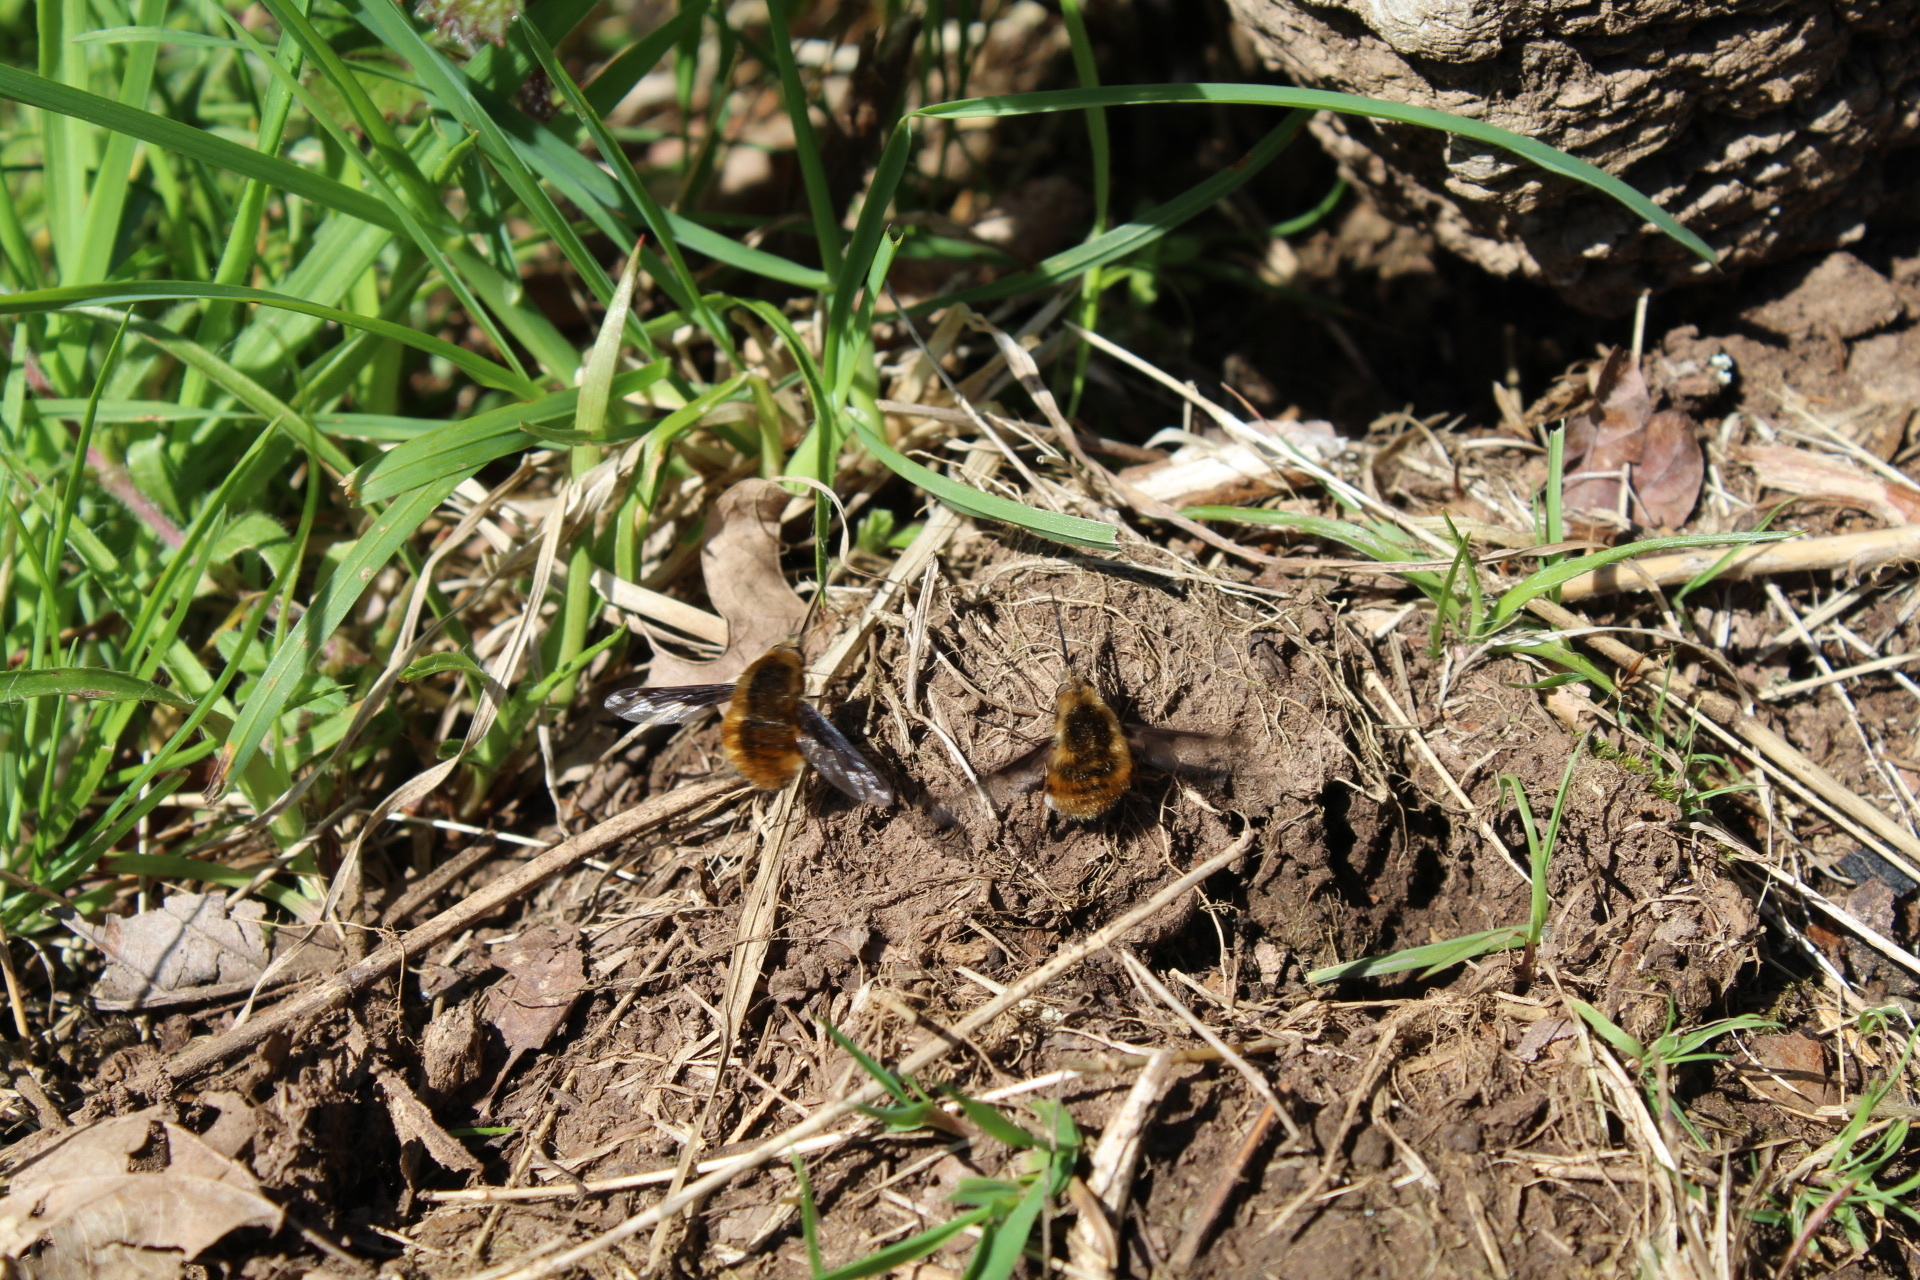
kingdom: Animalia
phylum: Arthropoda
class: Insecta
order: Diptera
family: Bombyliidae
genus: Bombylius
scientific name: Bombylius major
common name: Bee fly
